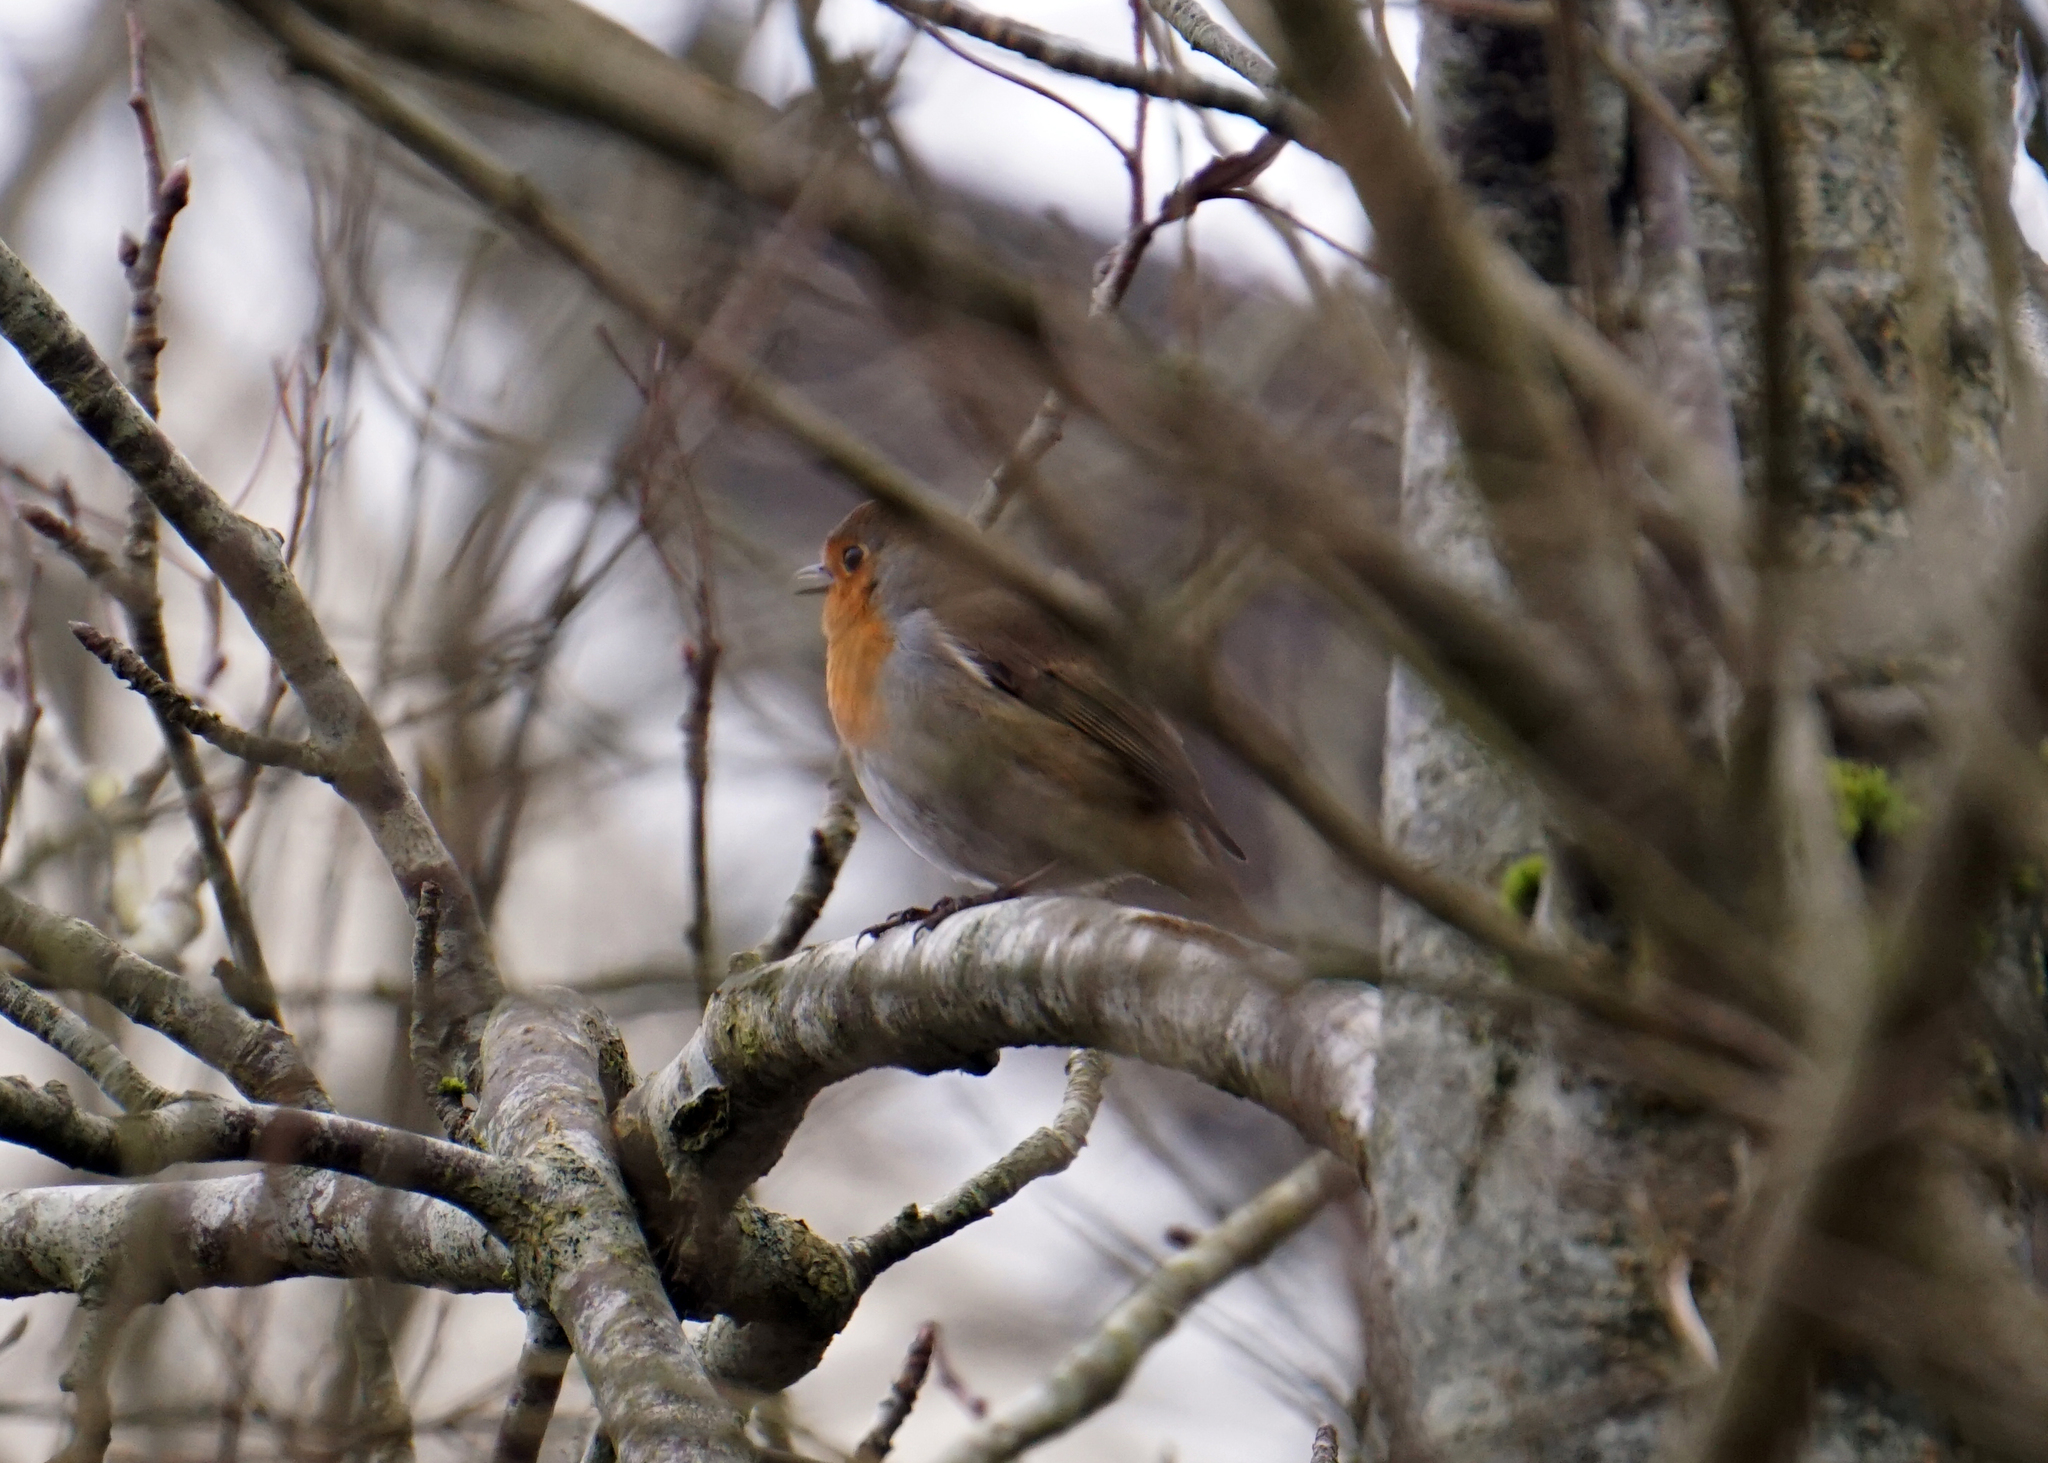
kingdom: Animalia
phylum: Chordata
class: Aves
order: Passeriformes
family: Muscicapidae
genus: Erithacus
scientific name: Erithacus rubecula
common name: European robin
